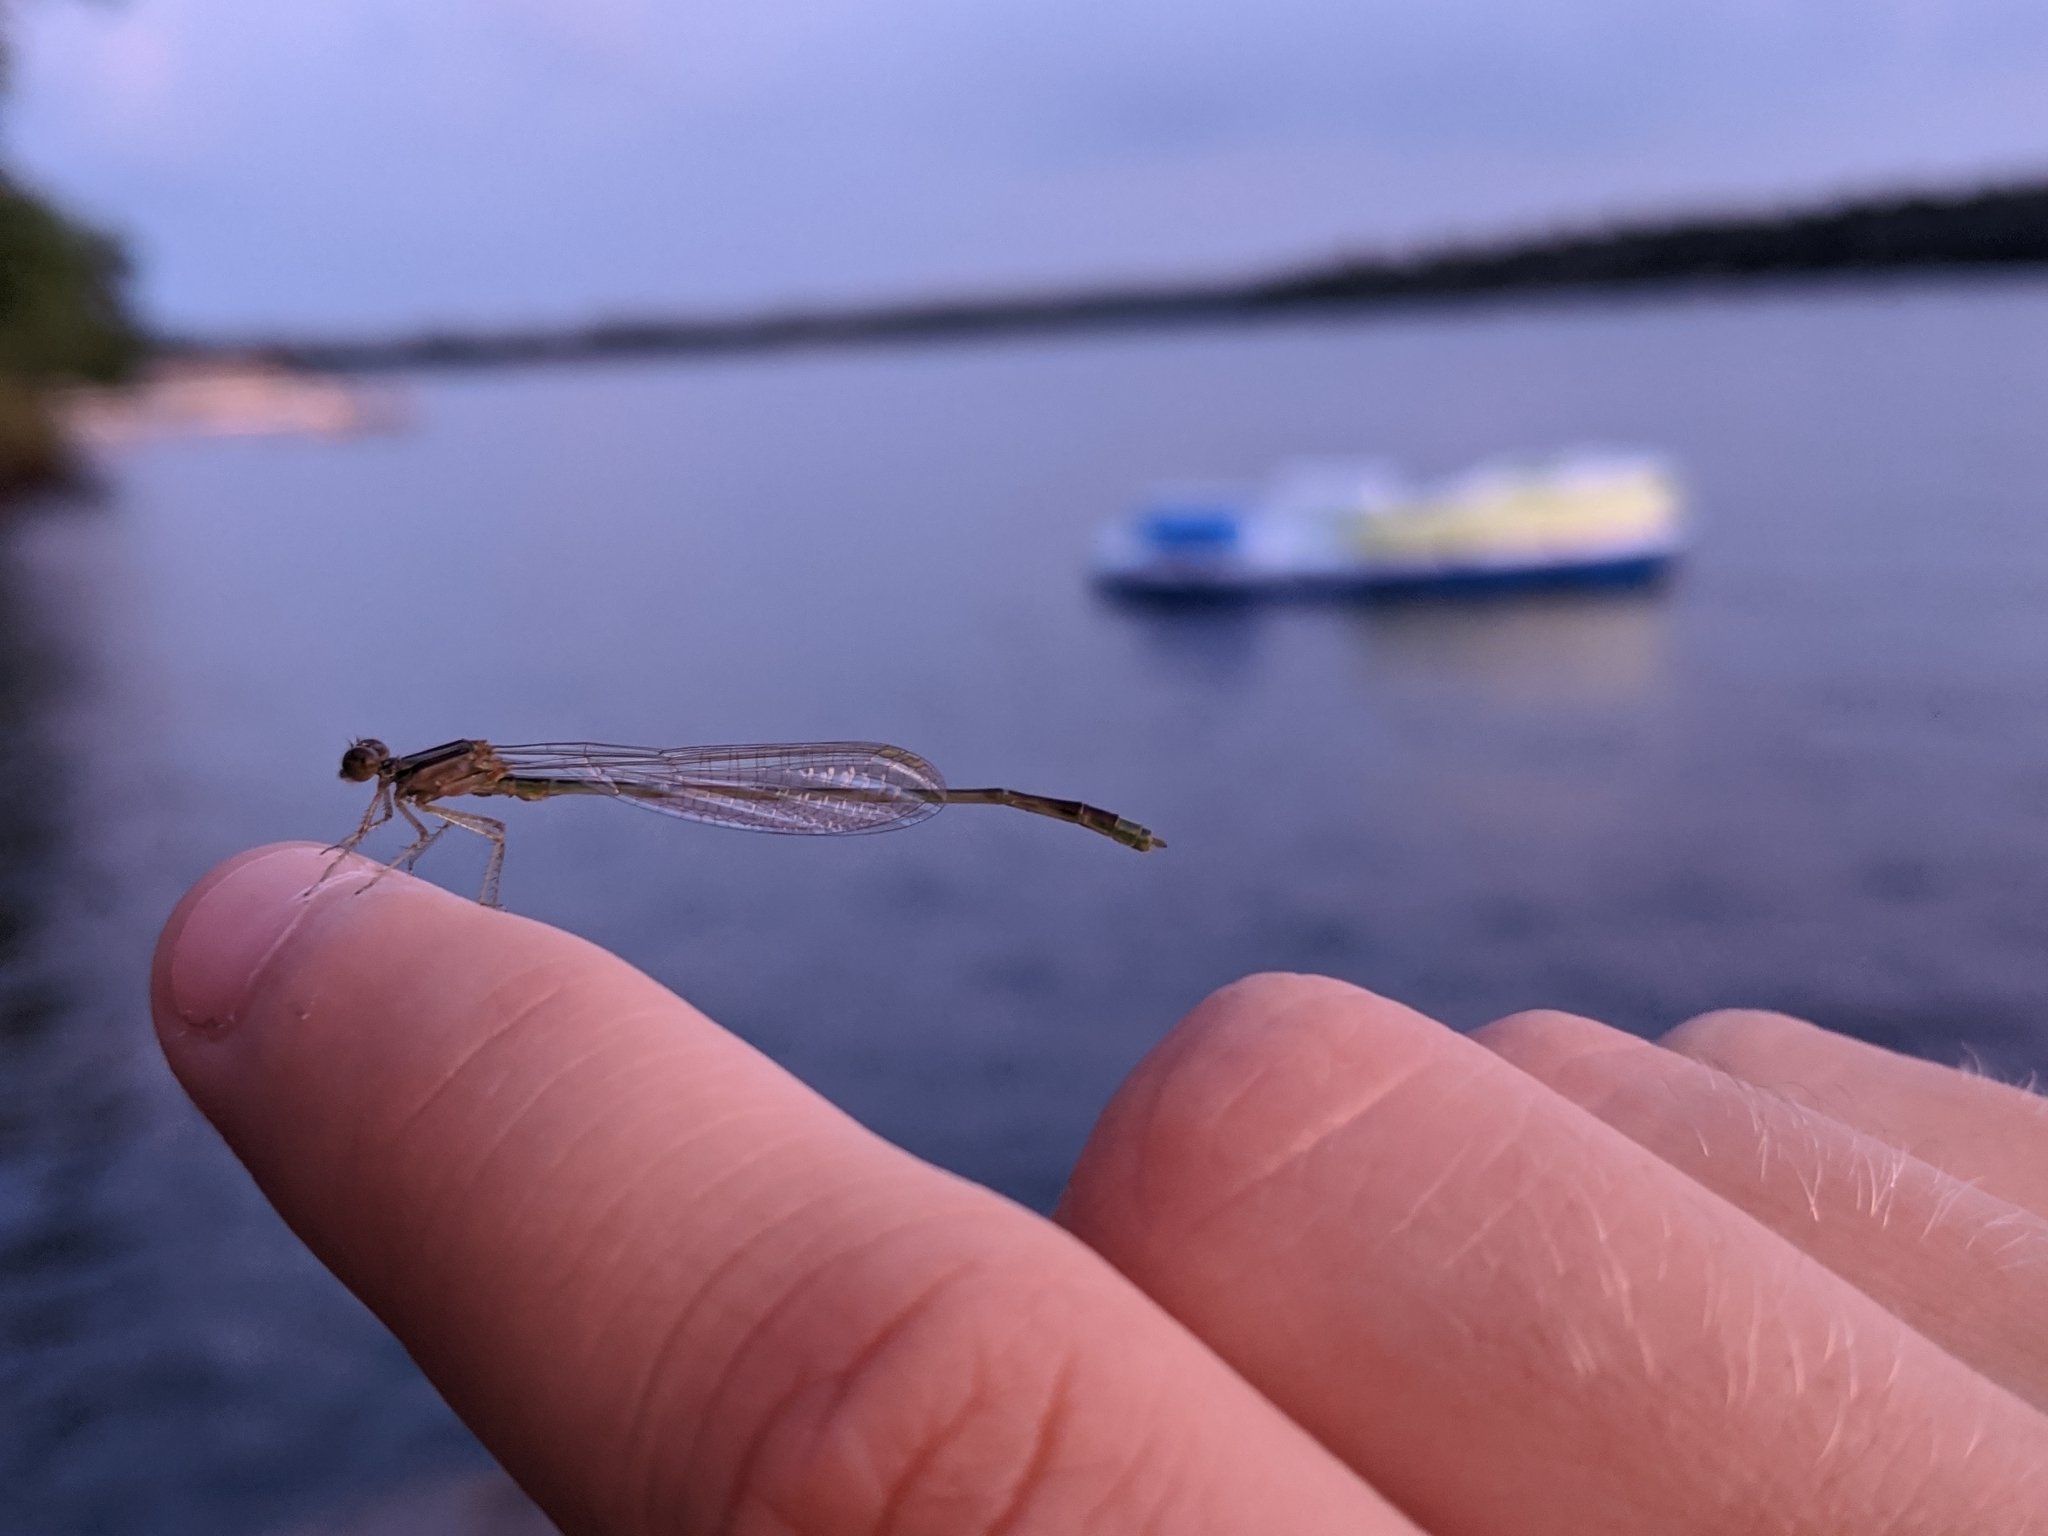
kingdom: Animalia
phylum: Arthropoda
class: Insecta
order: Odonata
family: Coenagrionidae
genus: Enallagma
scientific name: Enallagma signatum
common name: Orange bluet
